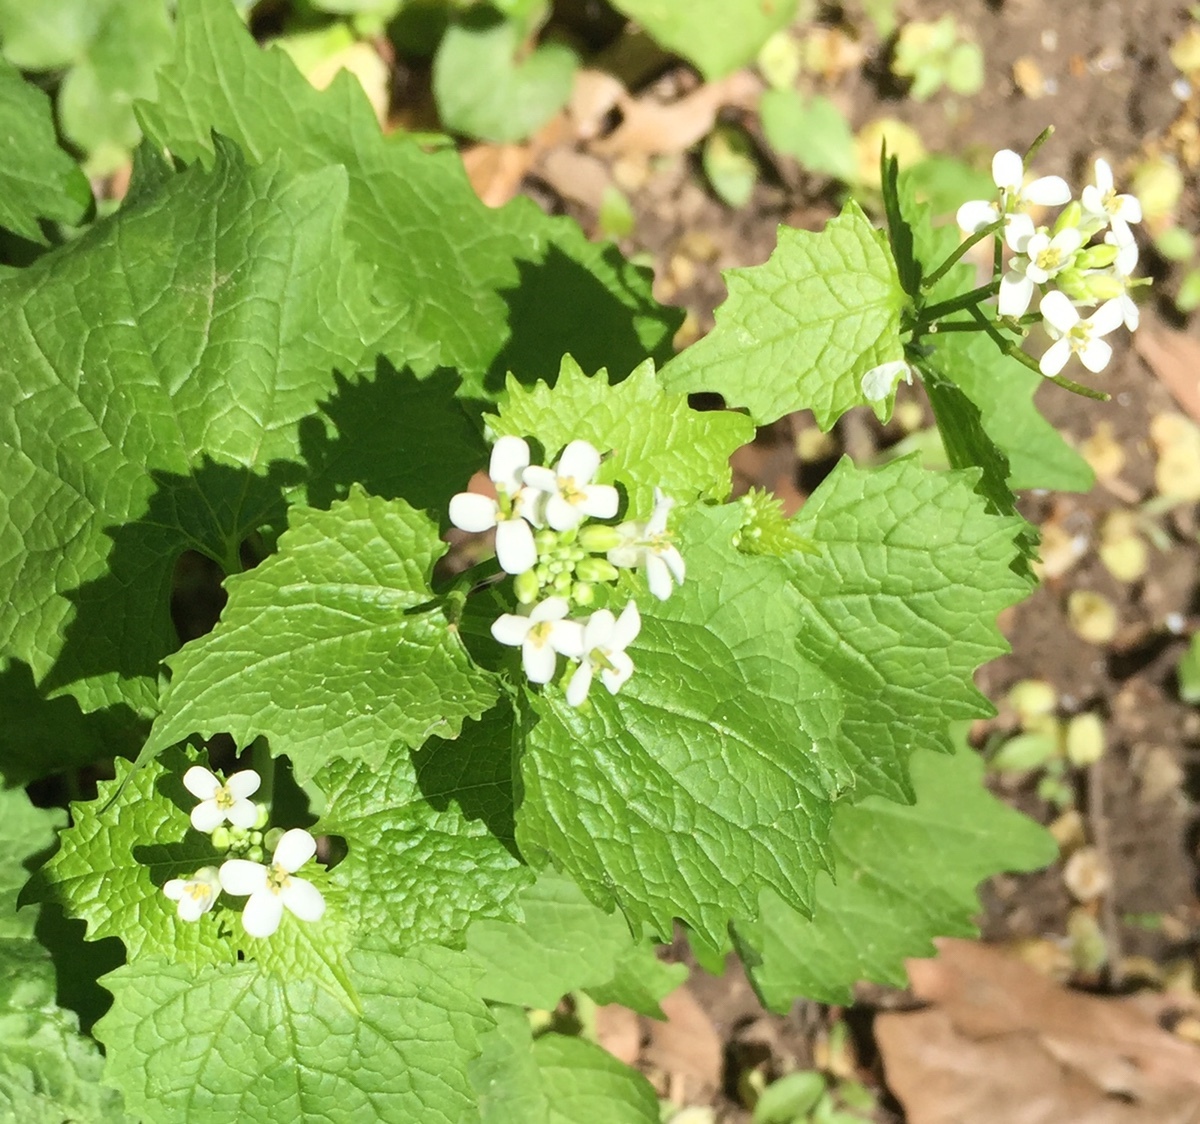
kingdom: Plantae
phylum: Tracheophyta
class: Magnoliopsida
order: Brassicales
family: Brassicaceae
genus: Alliaria
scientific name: Alliaria petiolata
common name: Garlic mustard
